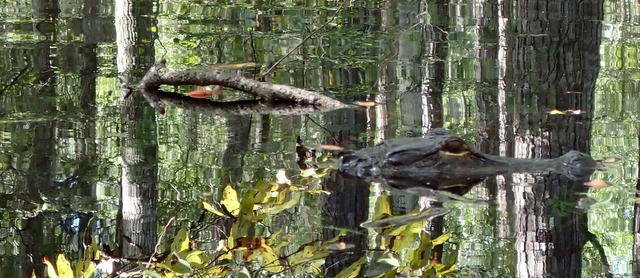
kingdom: Animalia
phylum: Chordata
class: Crocodylia
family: Alligatoridae
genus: Alligator
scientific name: Alligator mississippiensis
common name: American alligator
